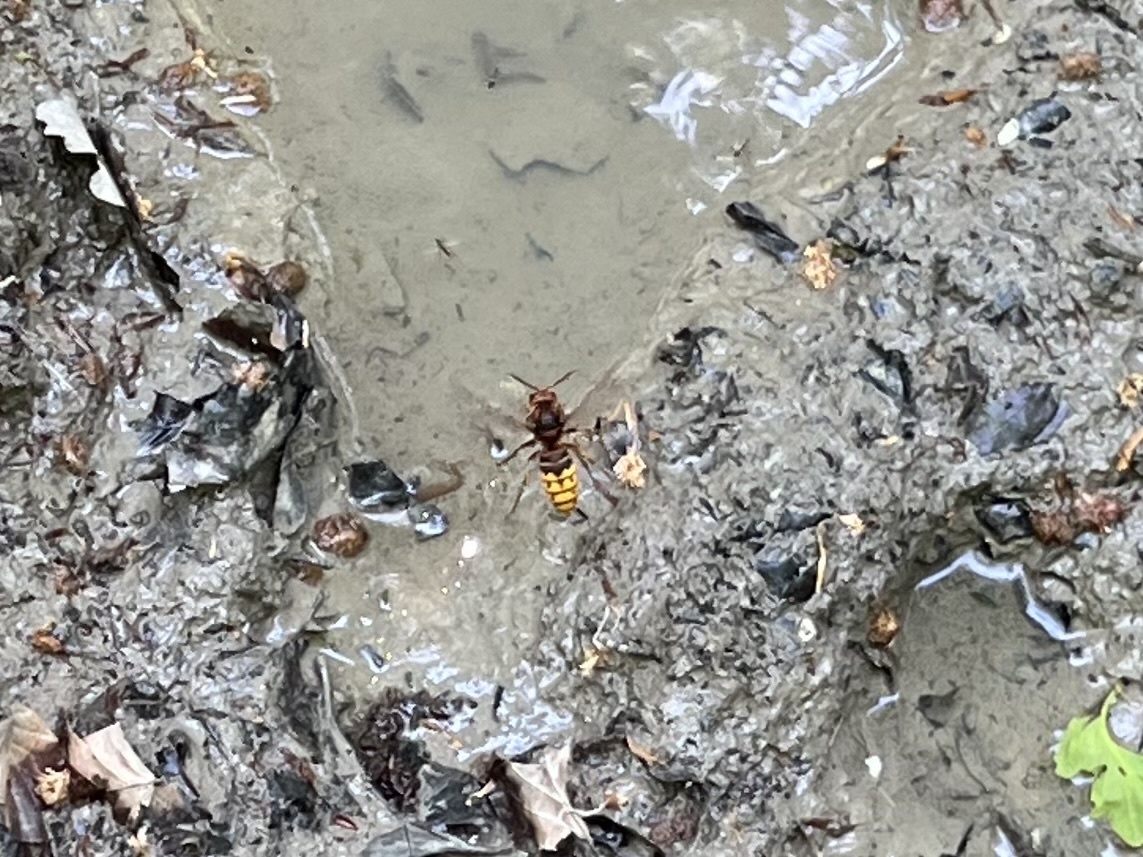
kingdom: Animalia
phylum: Arthropoda
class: Insecta
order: Hymenoptera
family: Vespidae
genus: Vespa
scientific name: Vespa crabro
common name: Hornet
